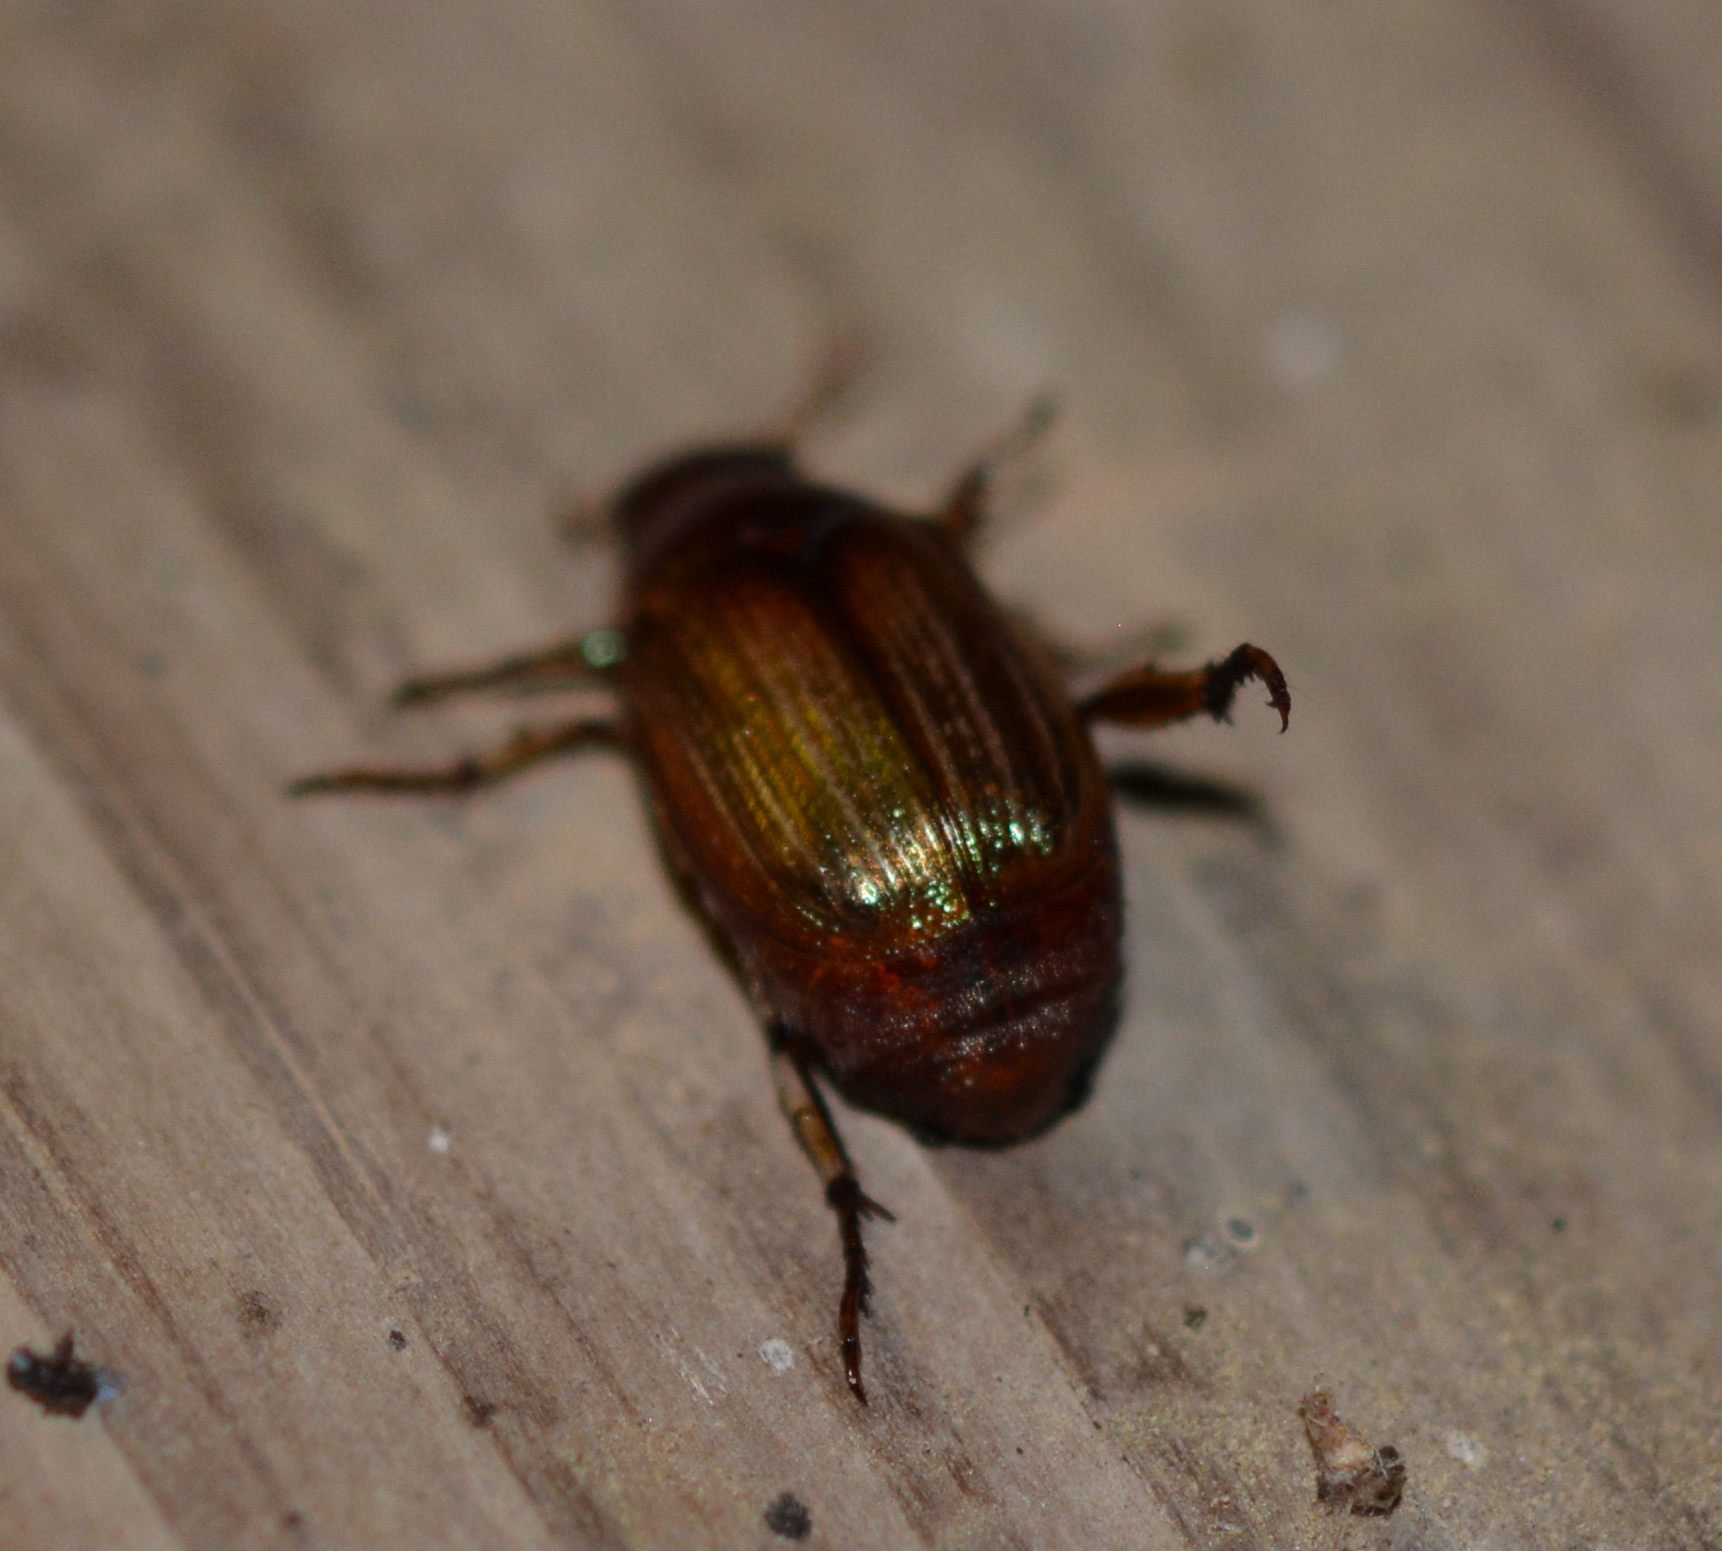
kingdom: Animalia
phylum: Arthropoda
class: Insecta
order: Coleoptera
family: Scarabaeidae
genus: Callistethus
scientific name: Callistethus marginatus
